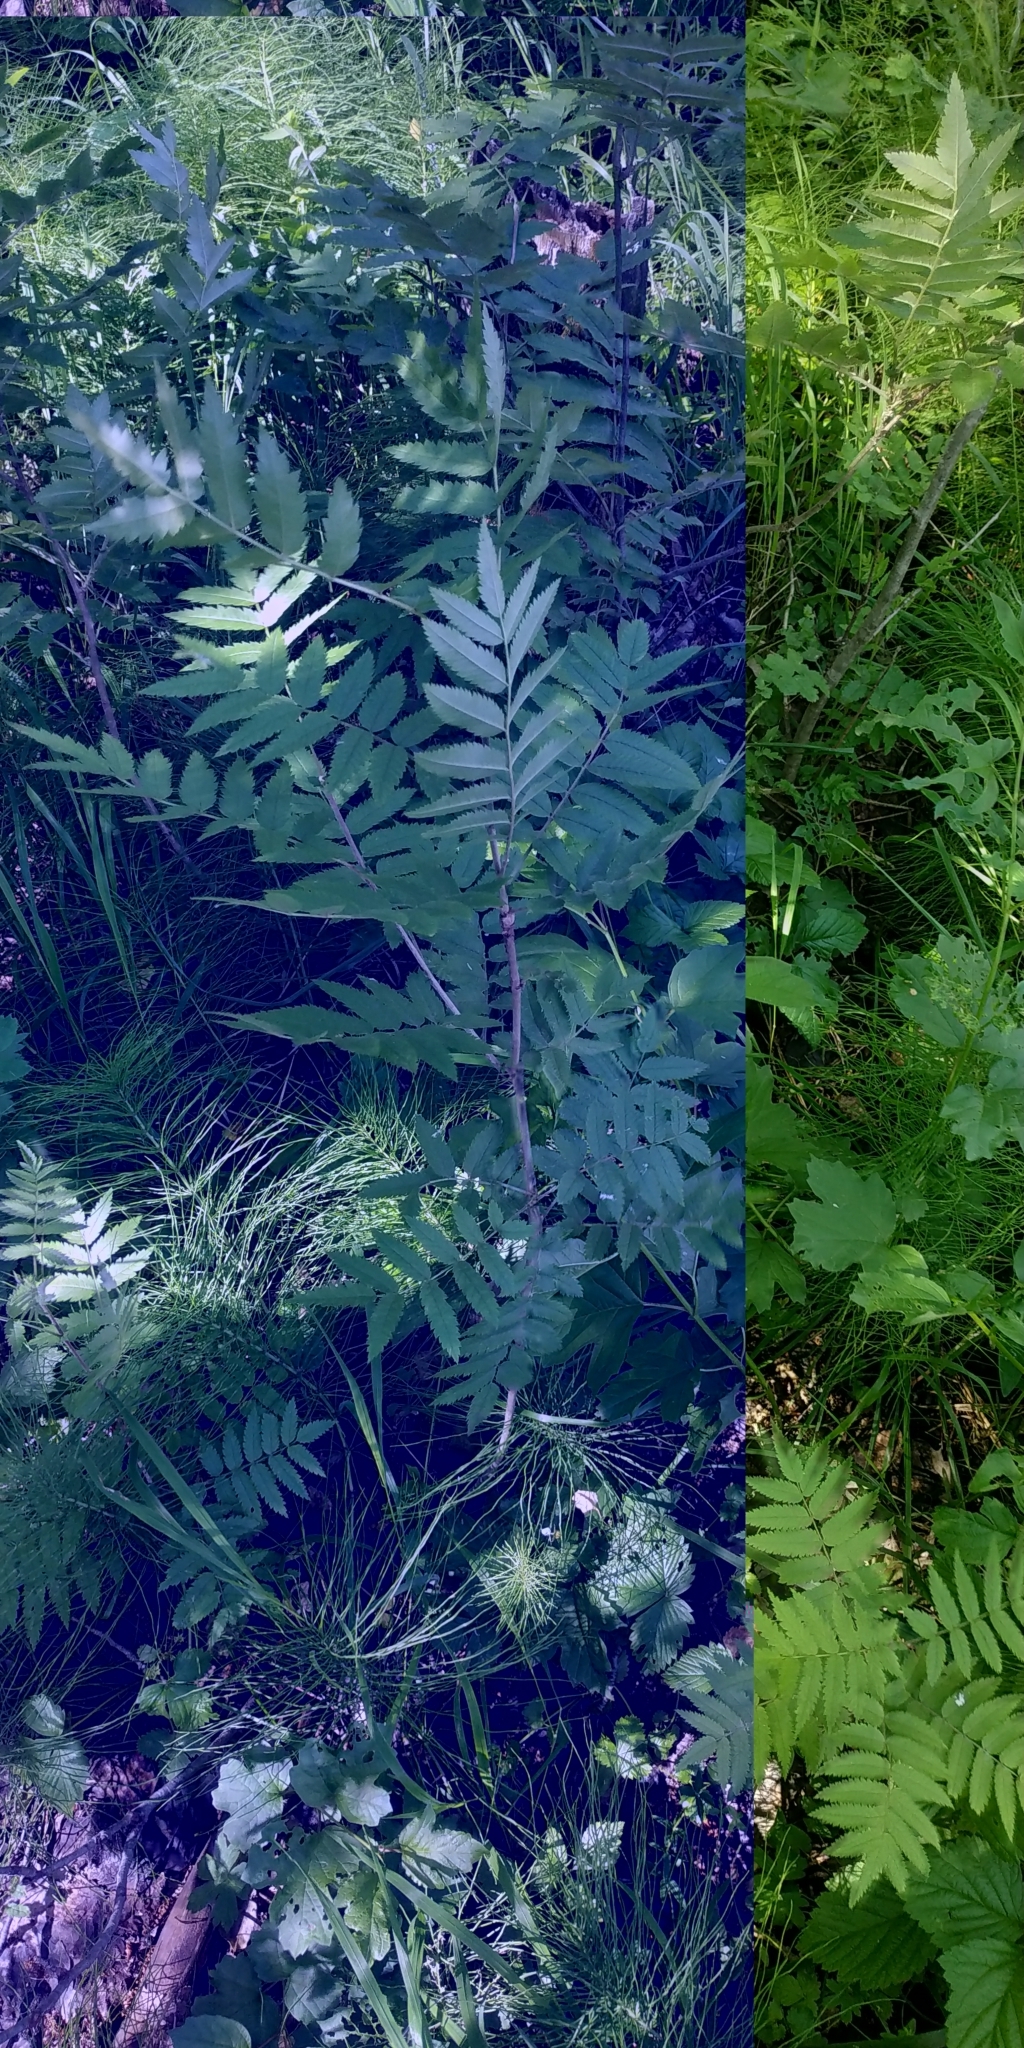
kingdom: Plantae
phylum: Tracheophyta
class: Magnoliopsida
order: Rosales
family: Rosaceae
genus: Sorbus
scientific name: Sorbus aucuparia
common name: Rowan
